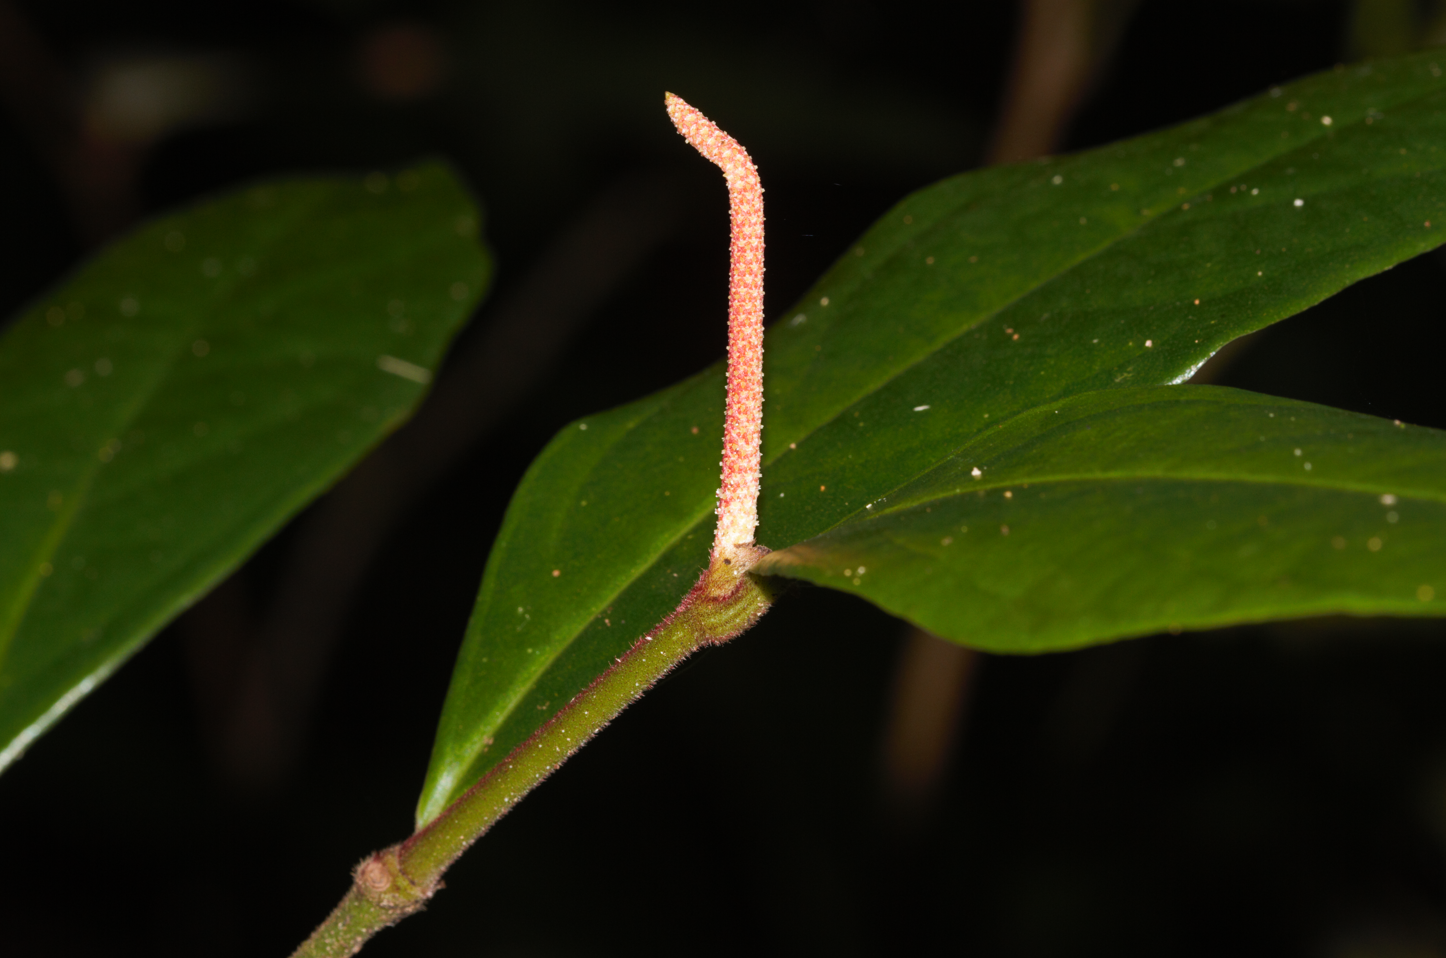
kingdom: Plantae
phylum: Tracheophyta
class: Magnoliopsida
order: Piperales
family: Piperaceae
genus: Piper
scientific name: Piper trichoneuron
